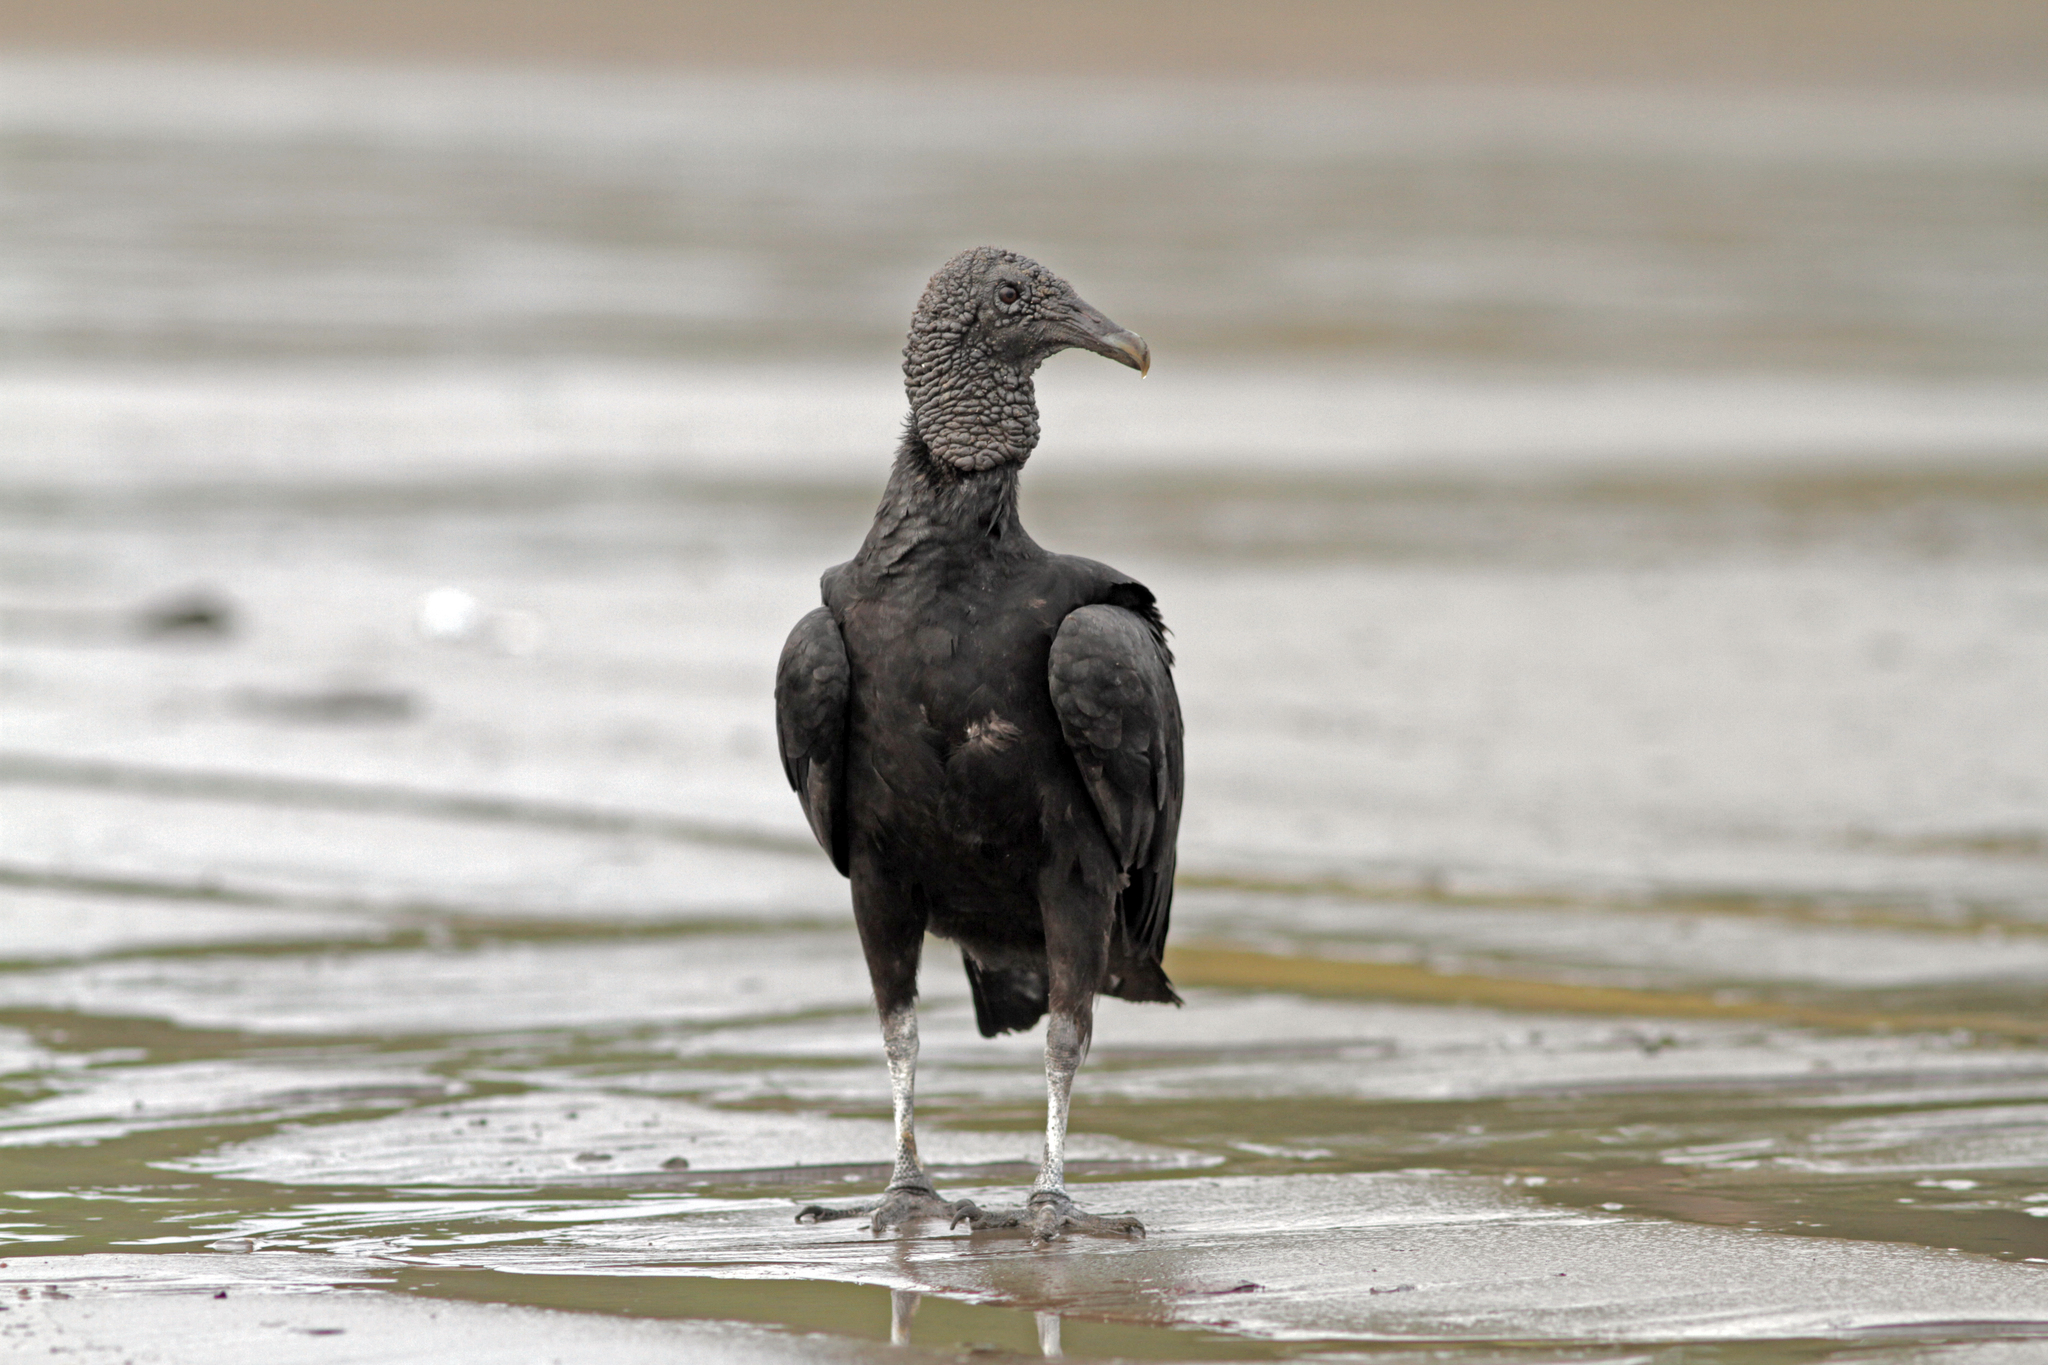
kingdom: Animalia
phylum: Chordata
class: Aves
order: Accipitriformes
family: Cathartidae
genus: Coragyps
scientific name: Coragyps atratus
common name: Black vulture
